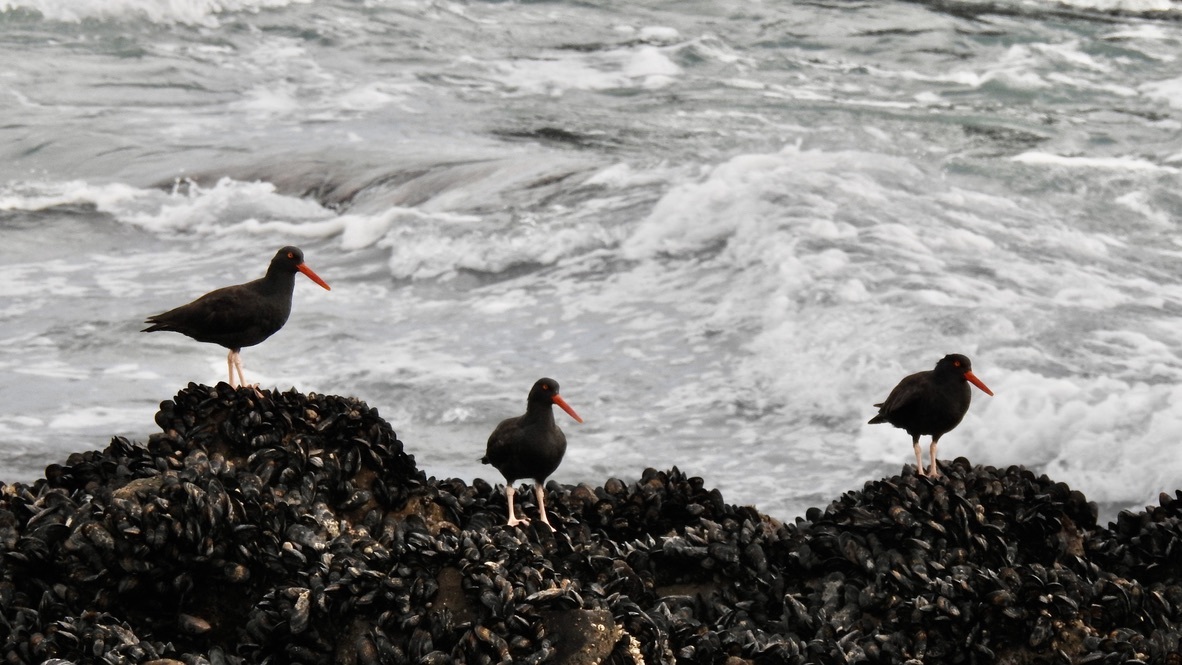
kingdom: Animalia
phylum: Chordata
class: Aves
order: Charadriiformes
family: Haematopodidae
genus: Haematopus
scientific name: Haematopus bachmani
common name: Black oystercatcher
